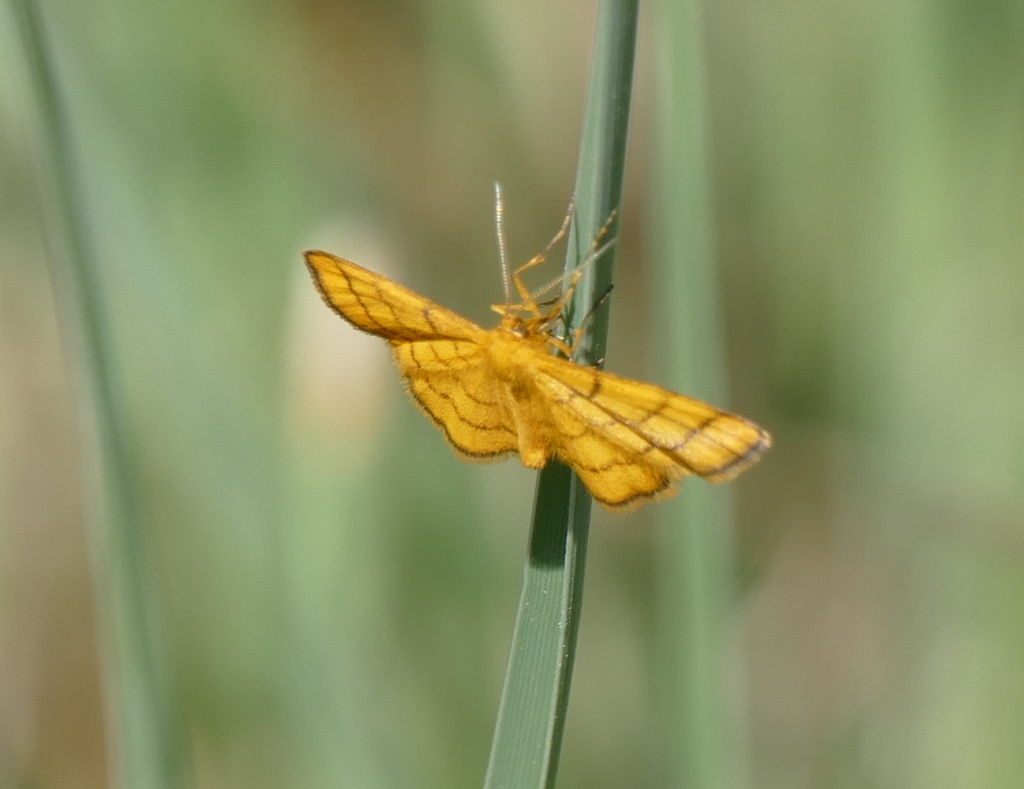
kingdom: Animalia
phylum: Arthropoda
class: Insecta
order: Lepidoptera
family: Geometridae
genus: Idaea
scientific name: Idaea aureolaria
